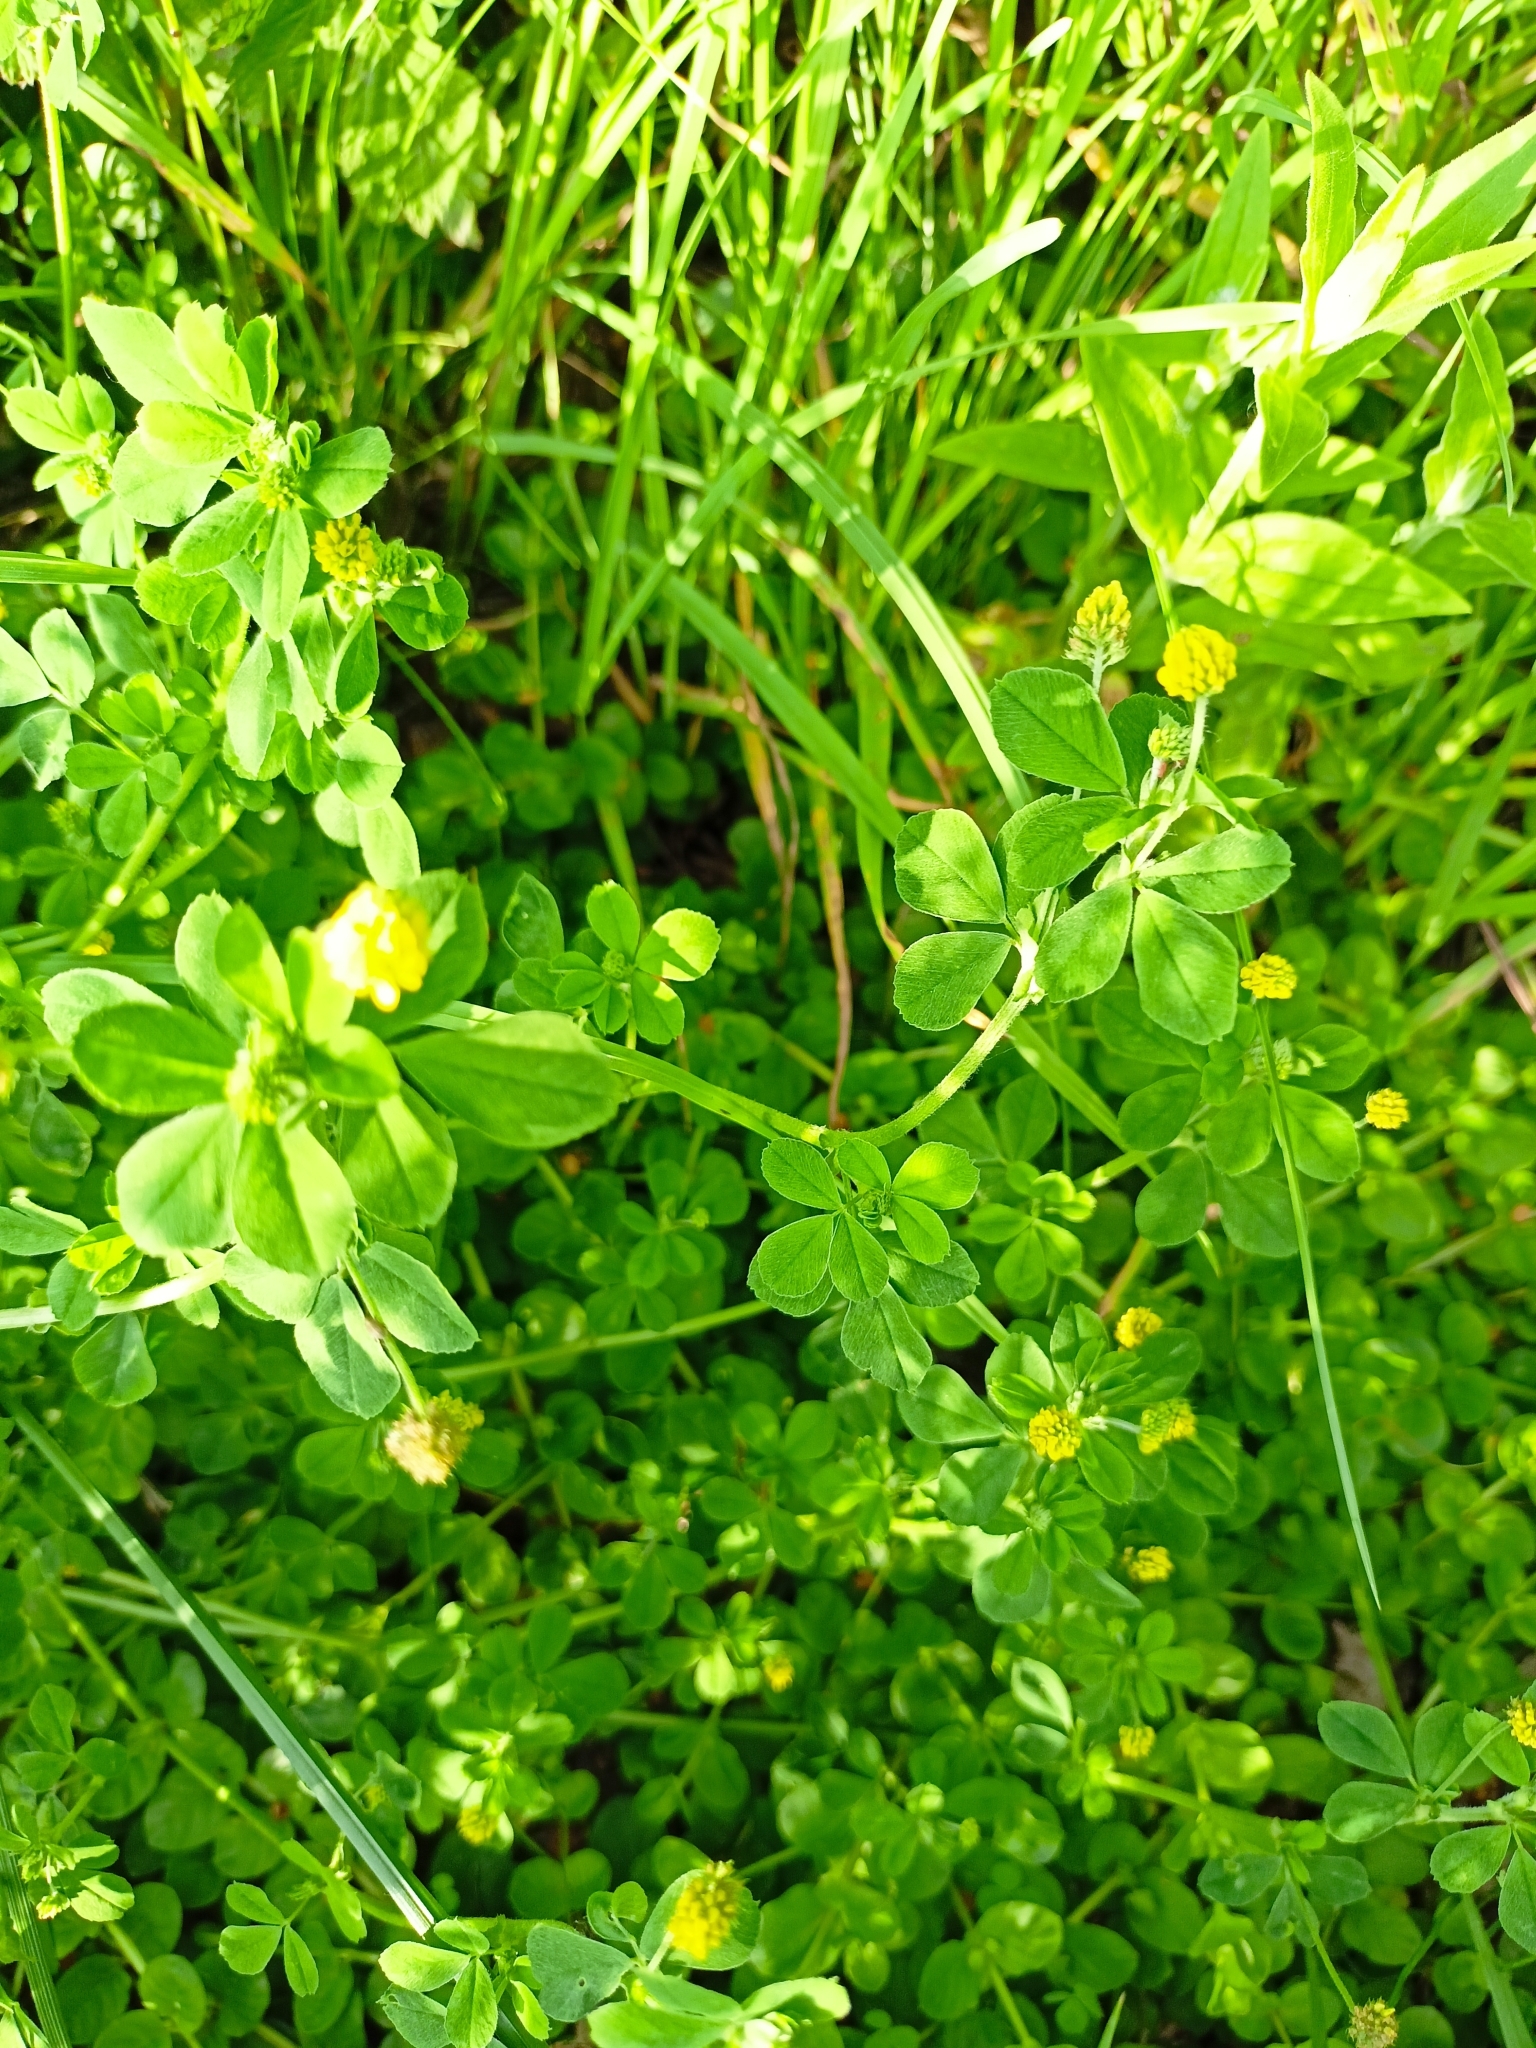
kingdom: Plantae
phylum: Tracheophyta
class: Magnoliopsida
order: Fabales
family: Fabaceae
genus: Medicago
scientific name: Medicago lupulina
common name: Black medick
